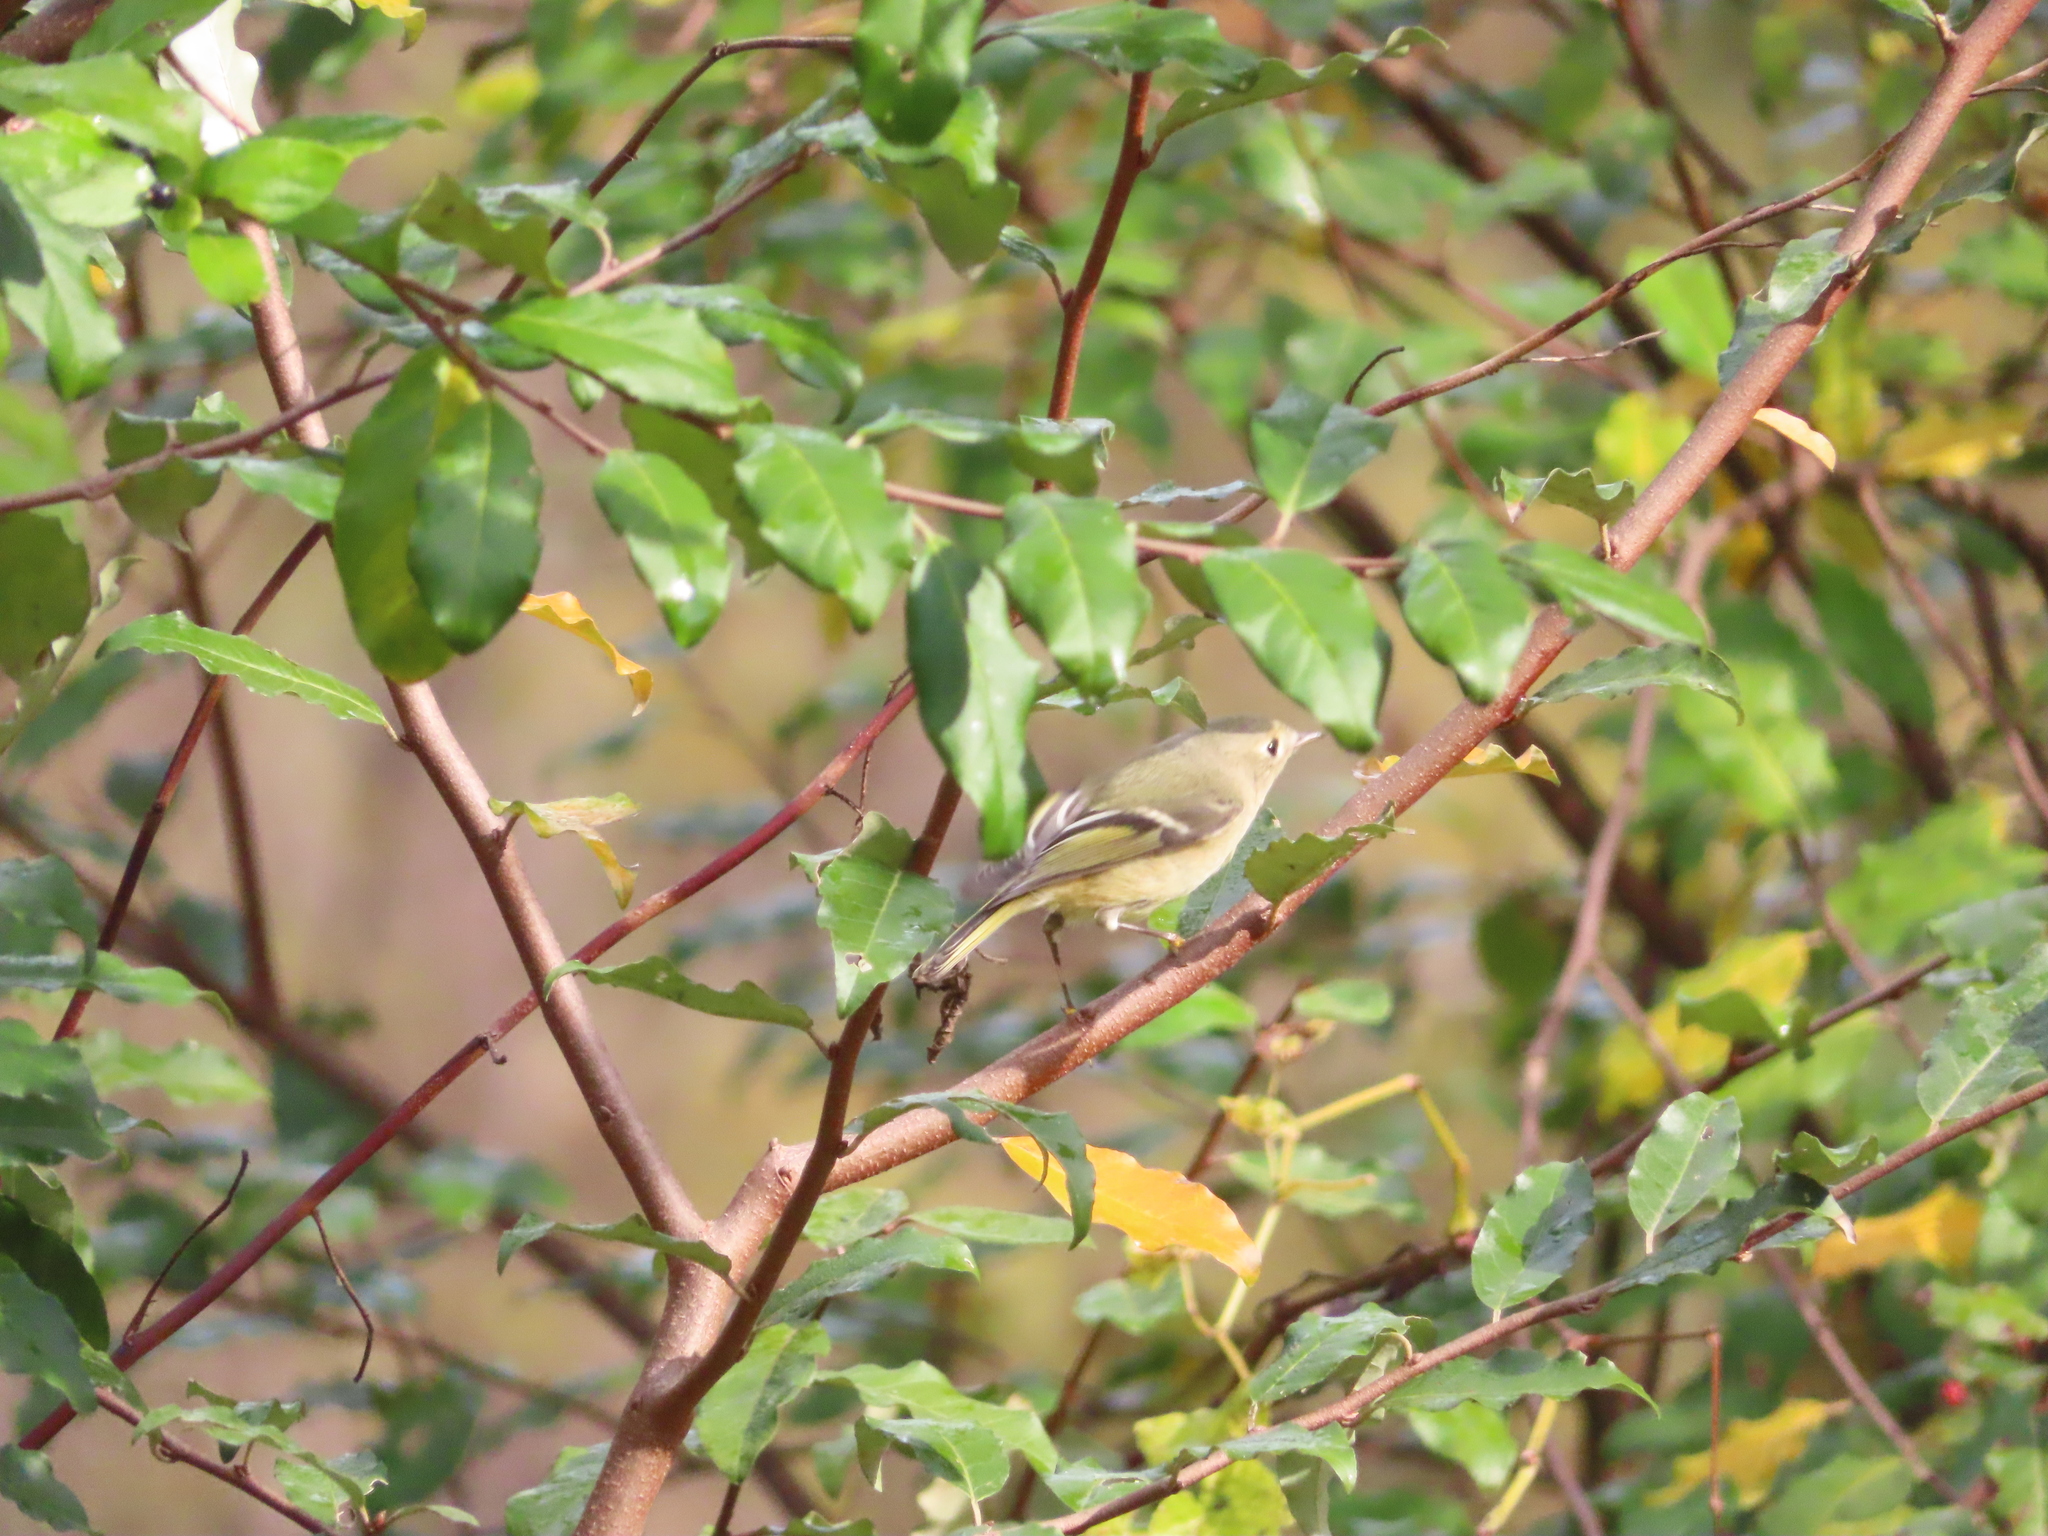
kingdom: Animalia
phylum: Chordata
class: Aves
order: Passeriformes
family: Regulidae
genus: Regulus
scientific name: Regulus calendula
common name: Ruby-crowned kinglet
